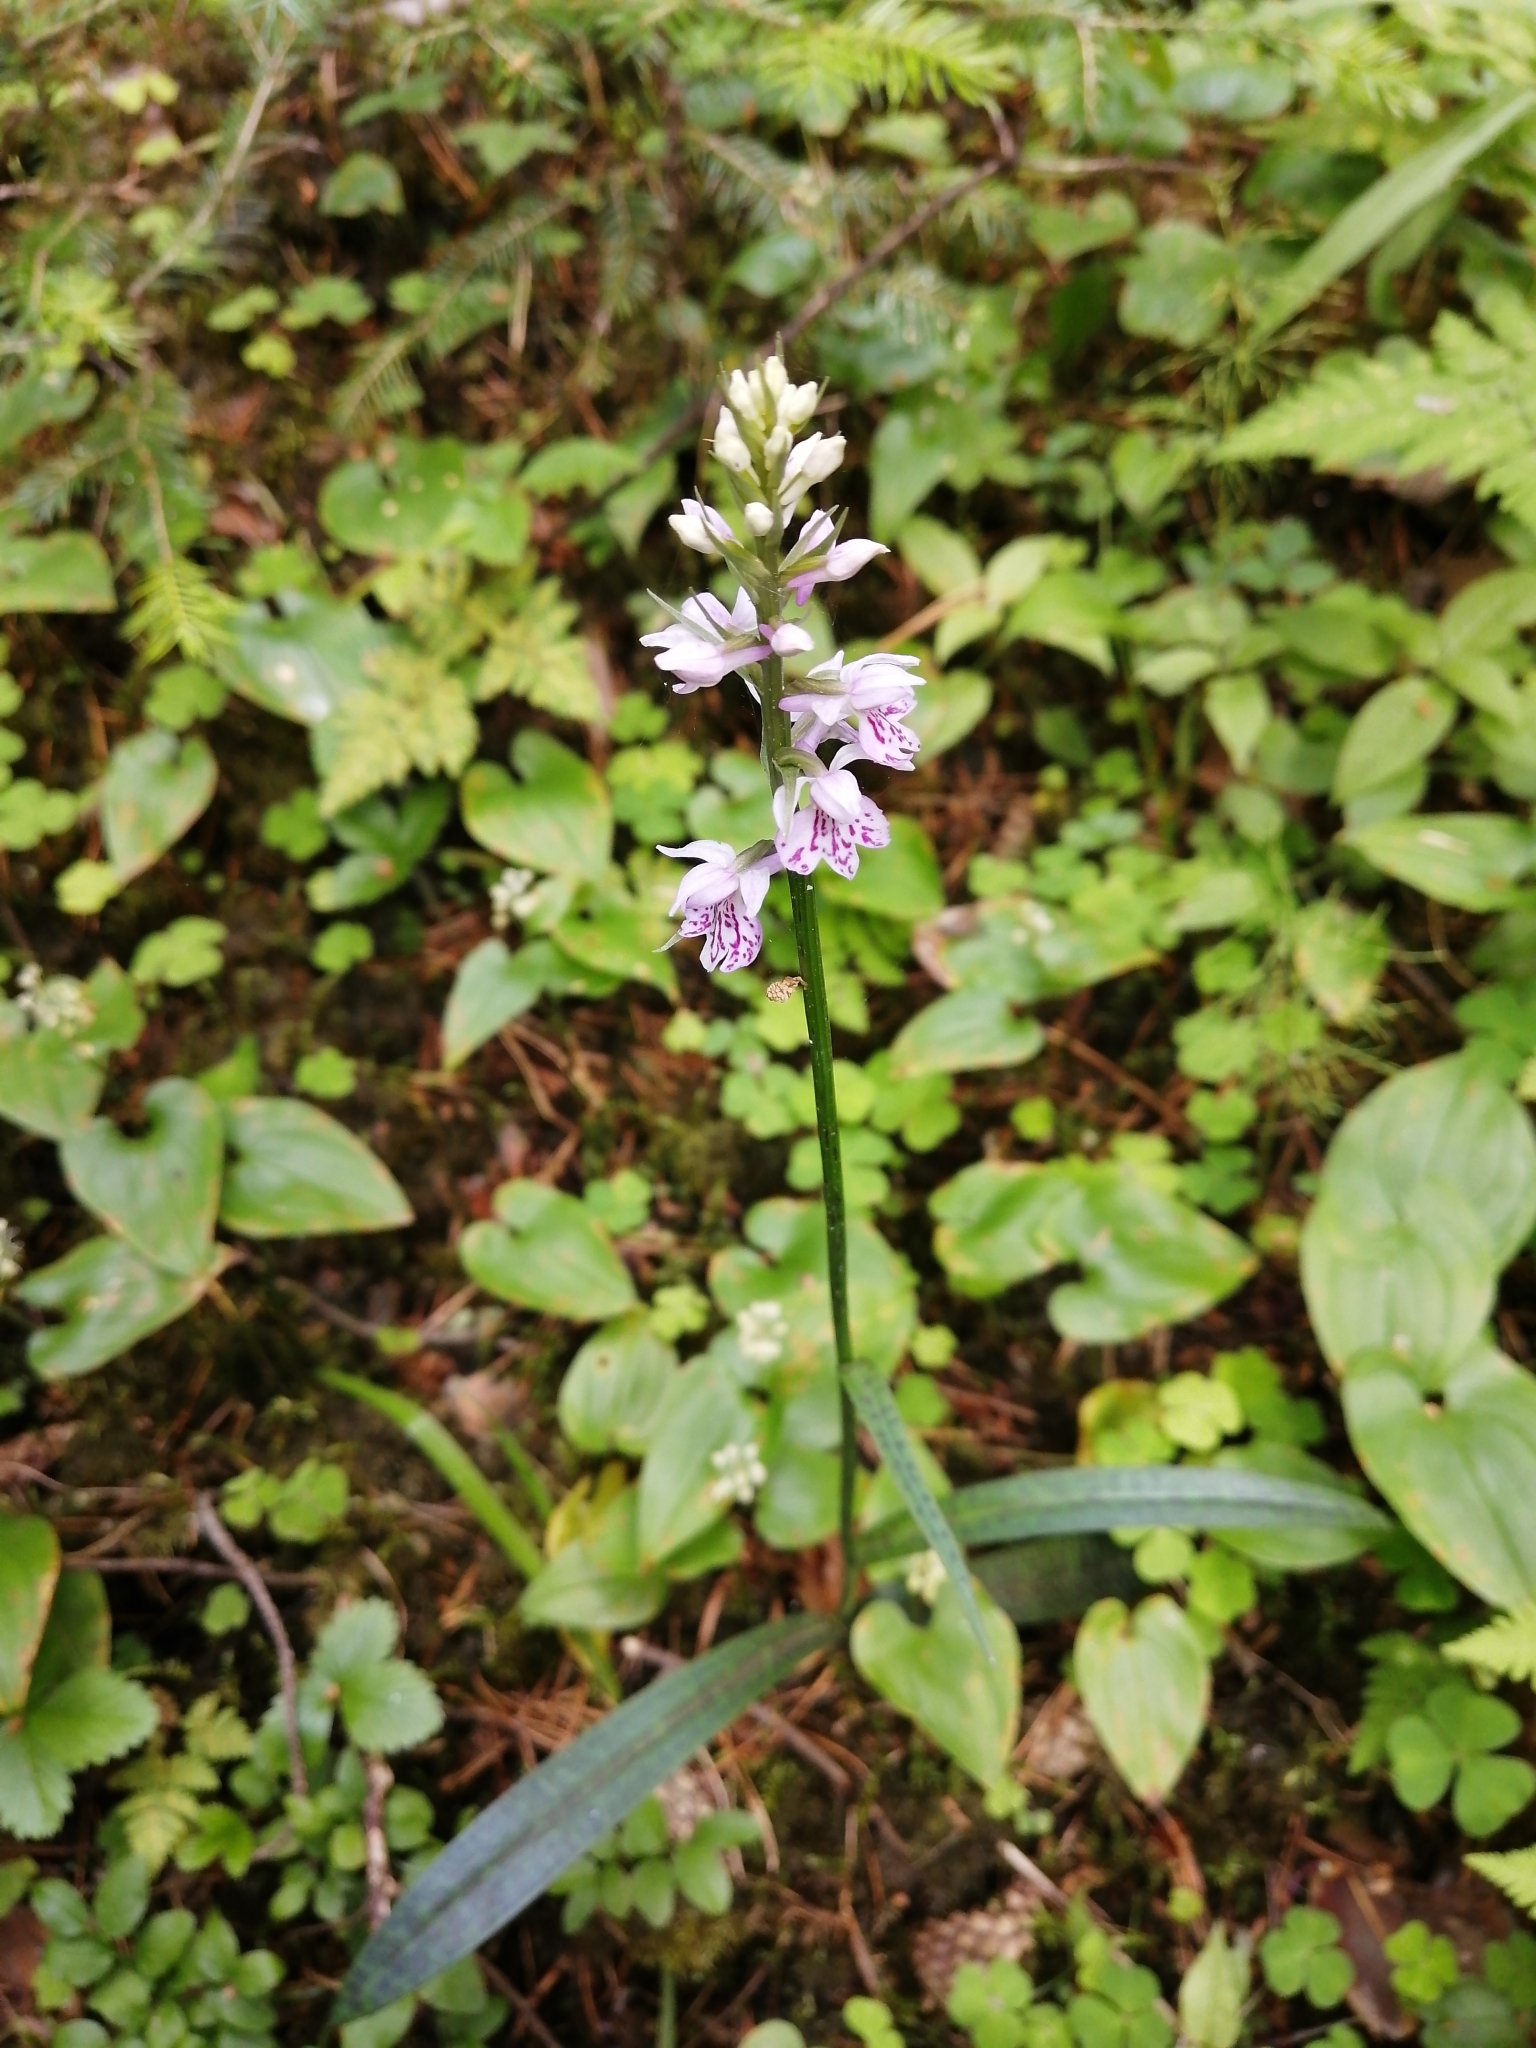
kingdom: Plantae
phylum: Tracheophyta
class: Liliopsida
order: Asparagales
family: Orchidaceae
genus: Dactylorhiza
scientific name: Dactylorhiza maculata
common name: Heath spotted-orchid
